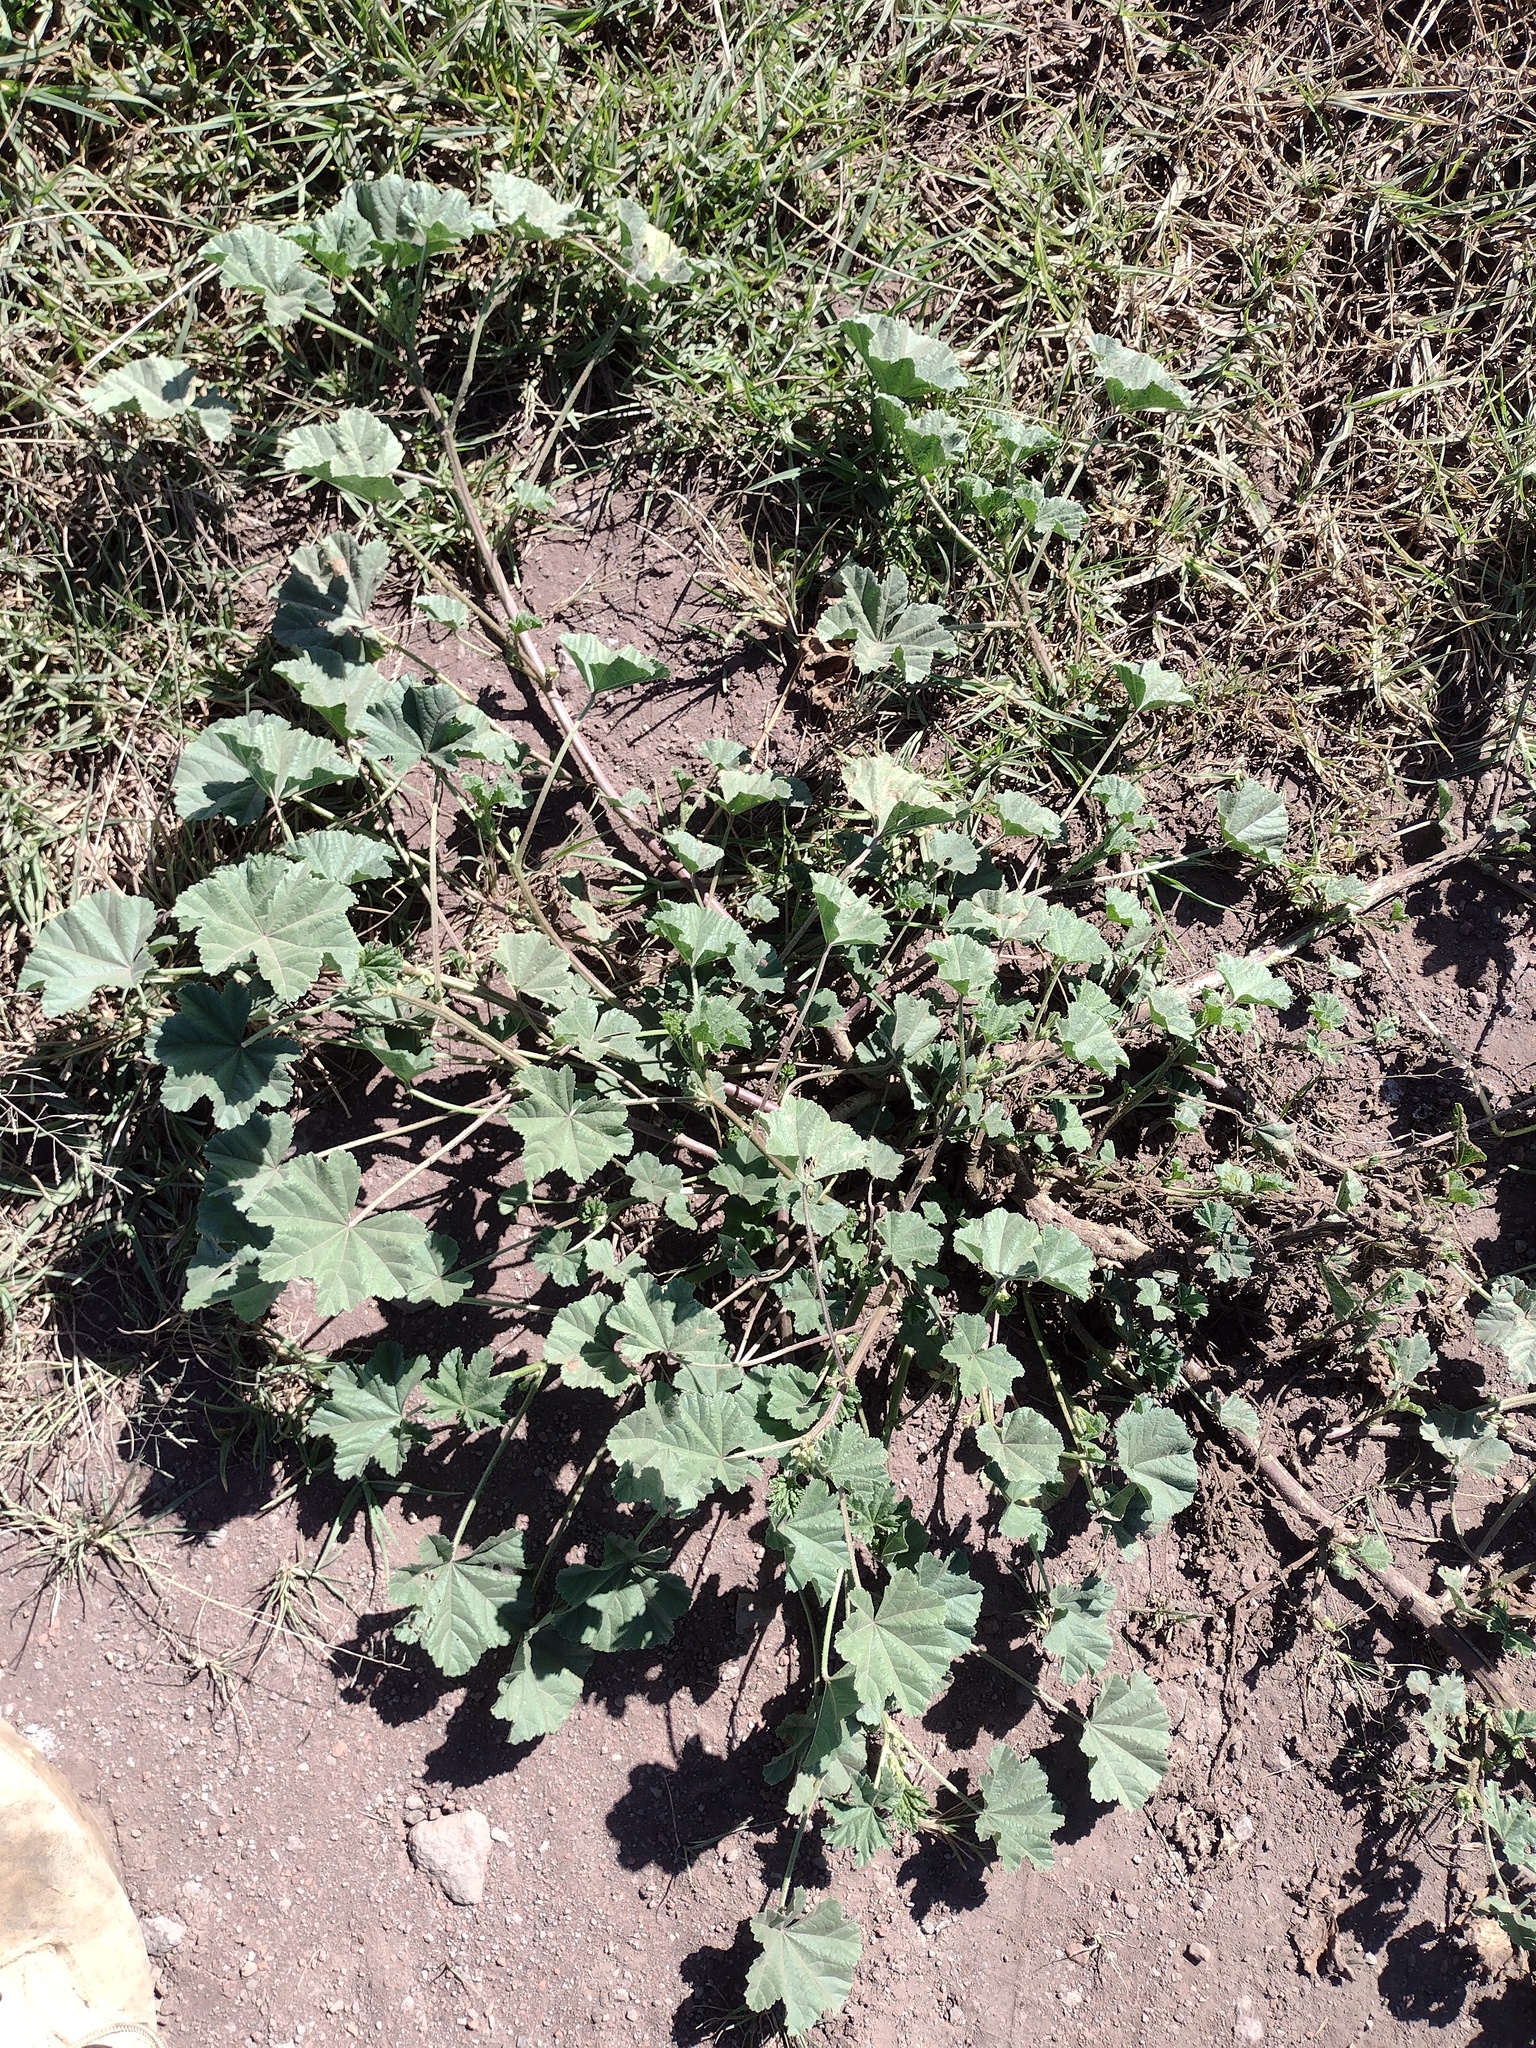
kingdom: Plantae
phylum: Tracheophyta
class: Magnoliopsida
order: Malvales
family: Malvaceae
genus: Malva
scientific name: Malva parviflora
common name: Least mallow
